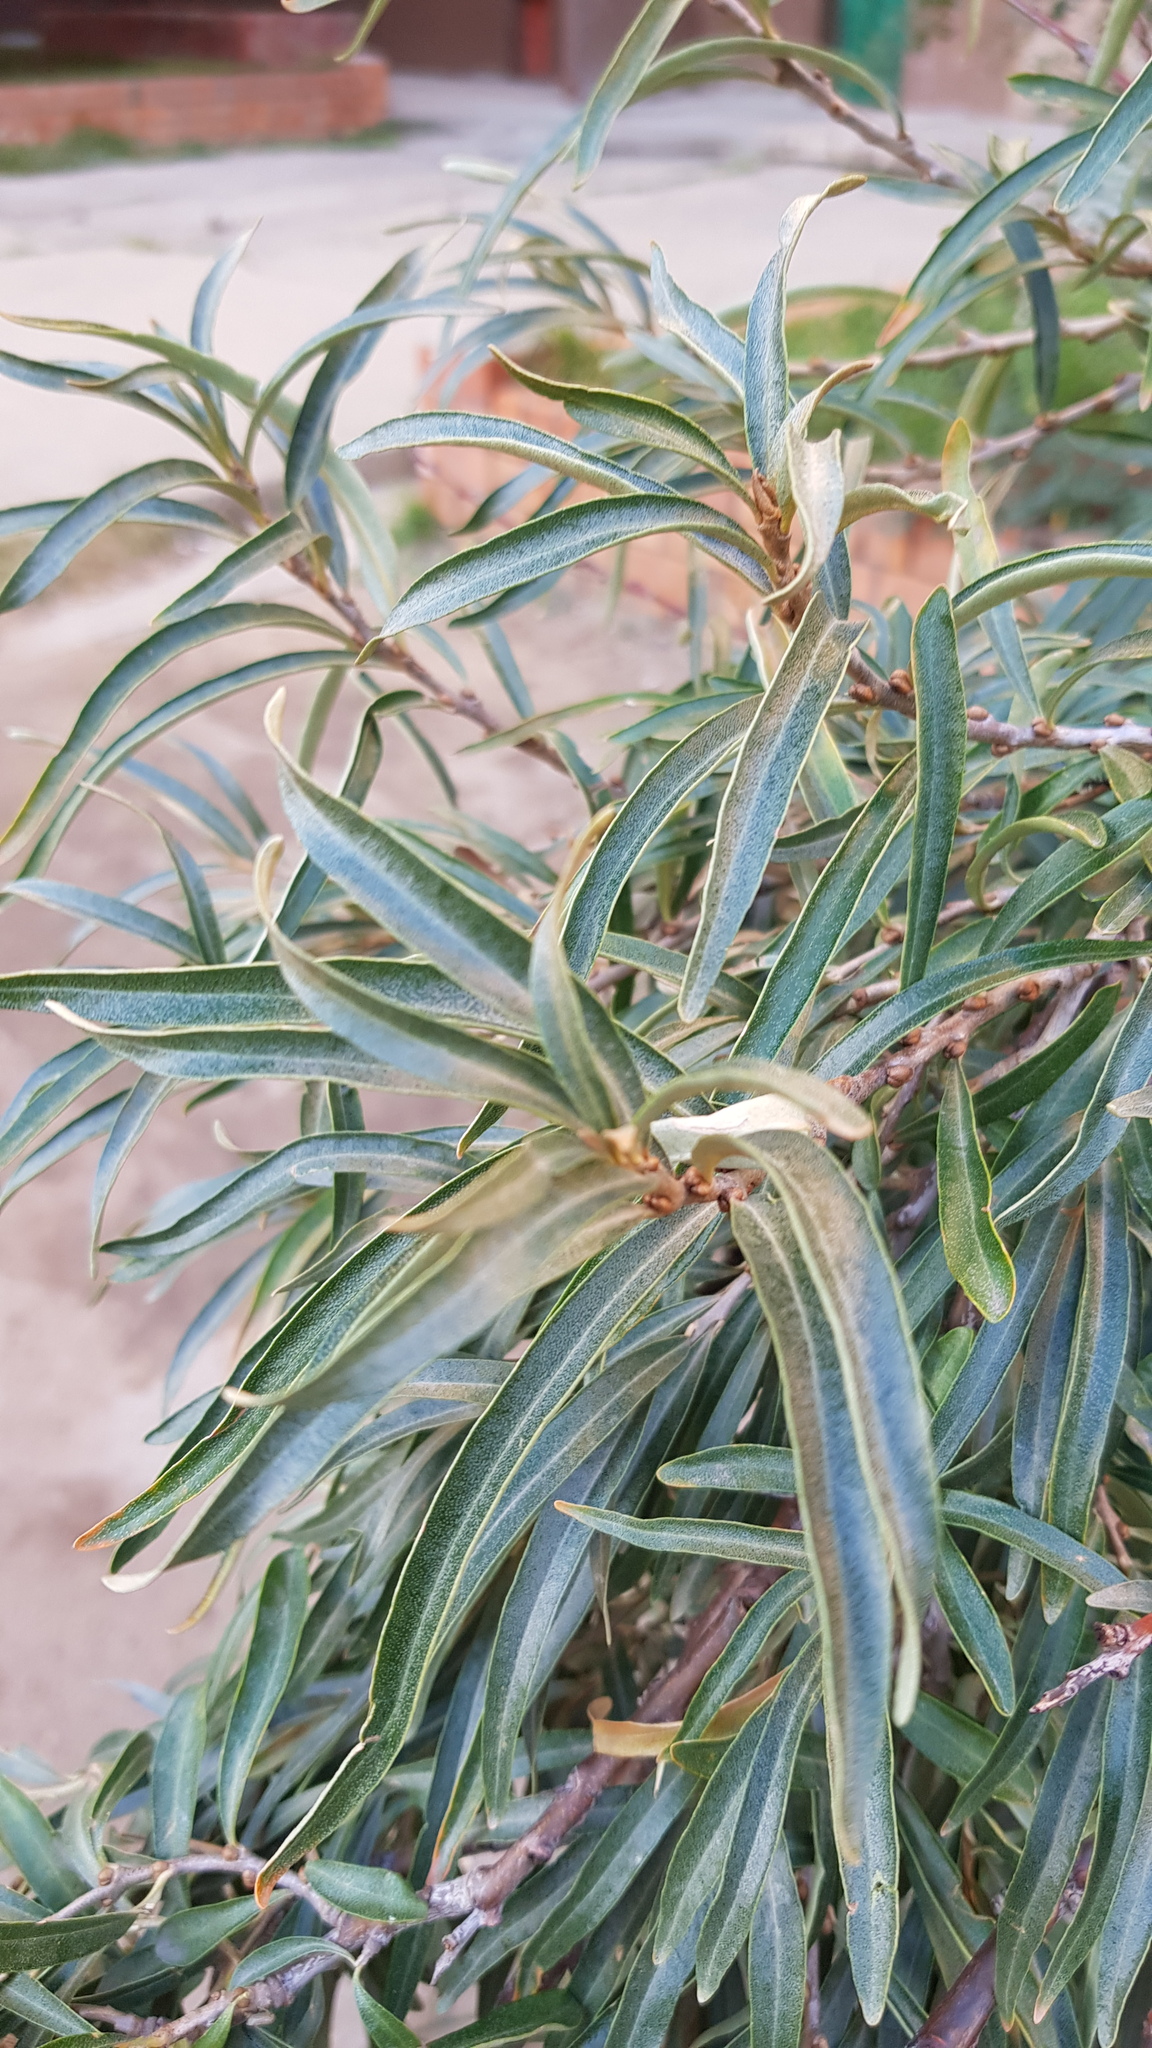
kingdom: Plantae
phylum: Tracheophyta
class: Magnoliopsida
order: Rosales
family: Elaeagnaceae
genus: Hippophae
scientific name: Hippophae rhamnoides
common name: Sea-buckthorn
